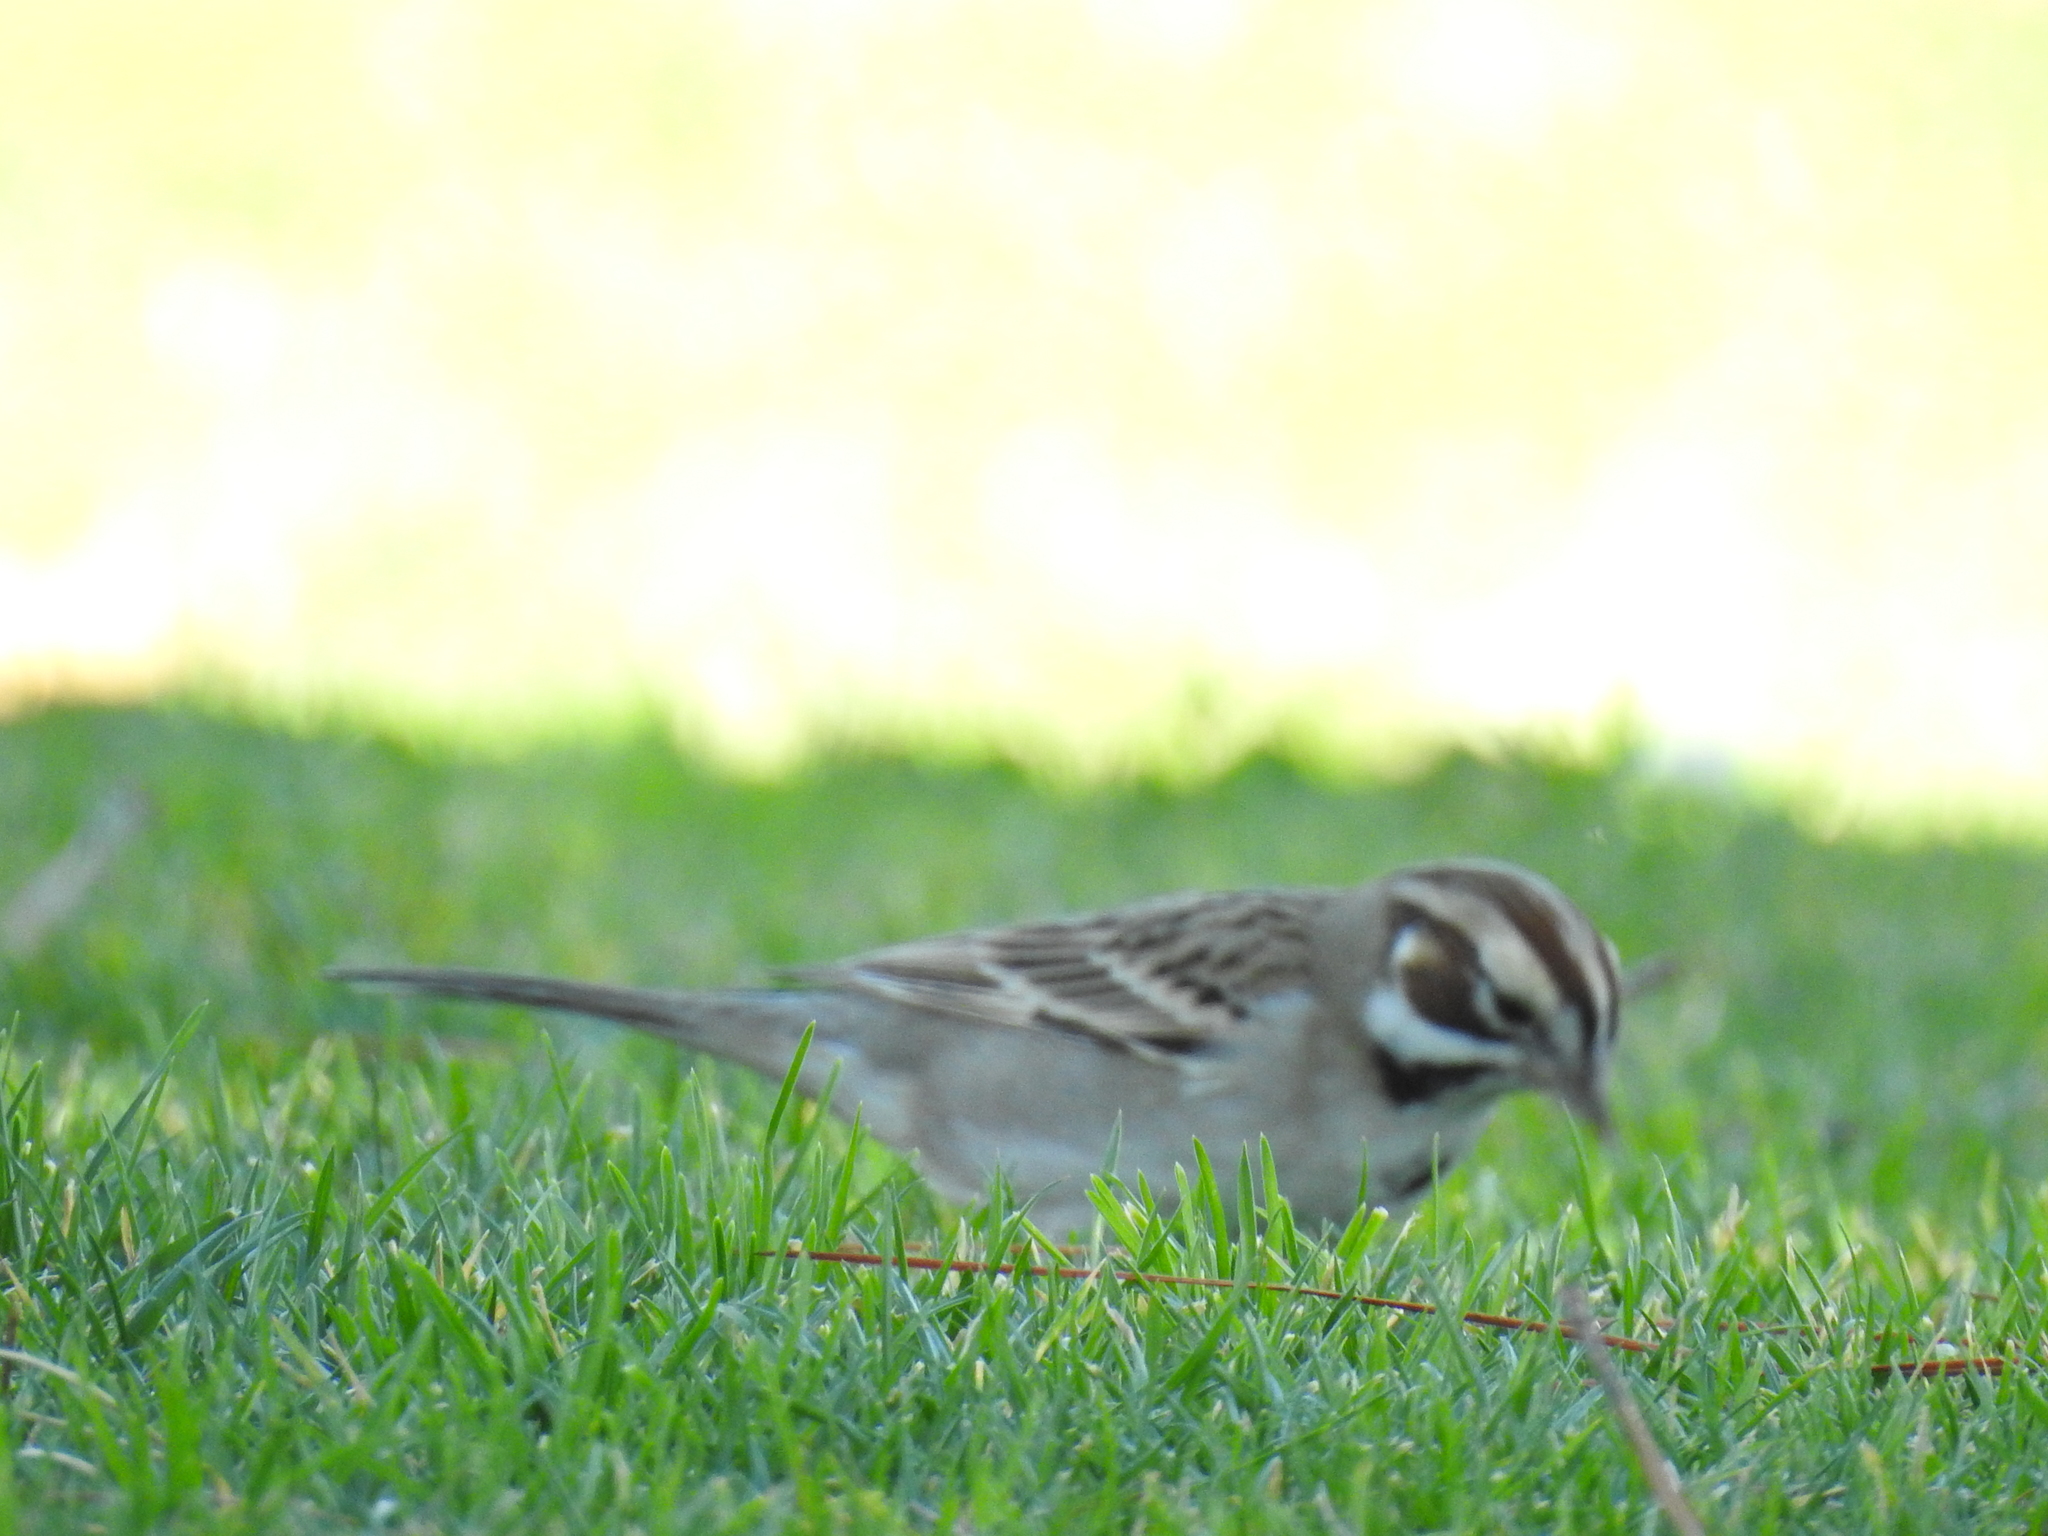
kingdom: Animalia
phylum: Chordata
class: Aves
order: Passeriformes
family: Passerellidae
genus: Chondestes
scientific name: Chondestes grammacus
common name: Lark sparrow
